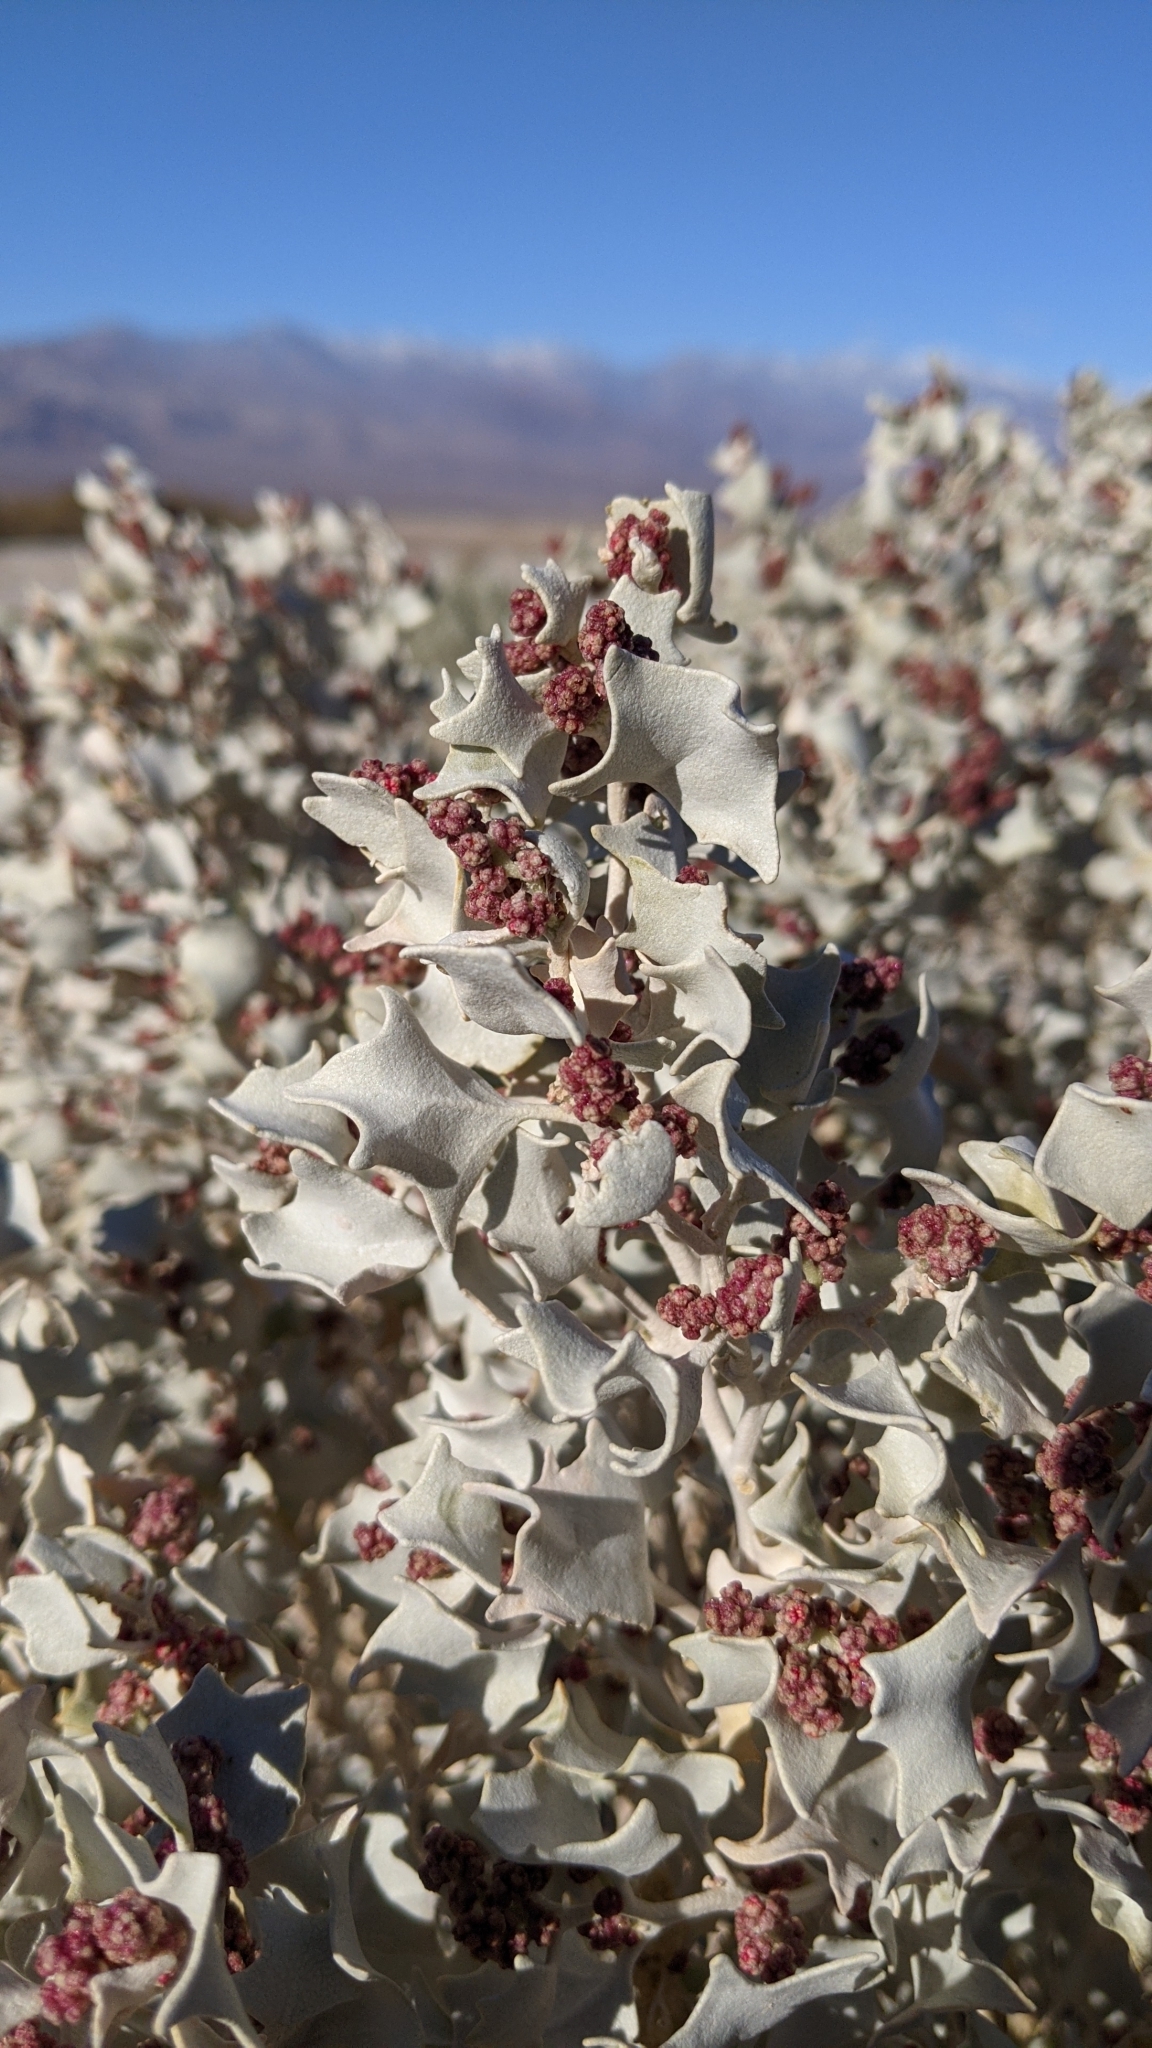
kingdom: Plantae
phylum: Tracheophyta
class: Magnoliopsida
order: Caryophyllales
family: Amaranthaceae
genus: Atriplex
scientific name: Atriplex hymenelytra
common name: Desert-holly
